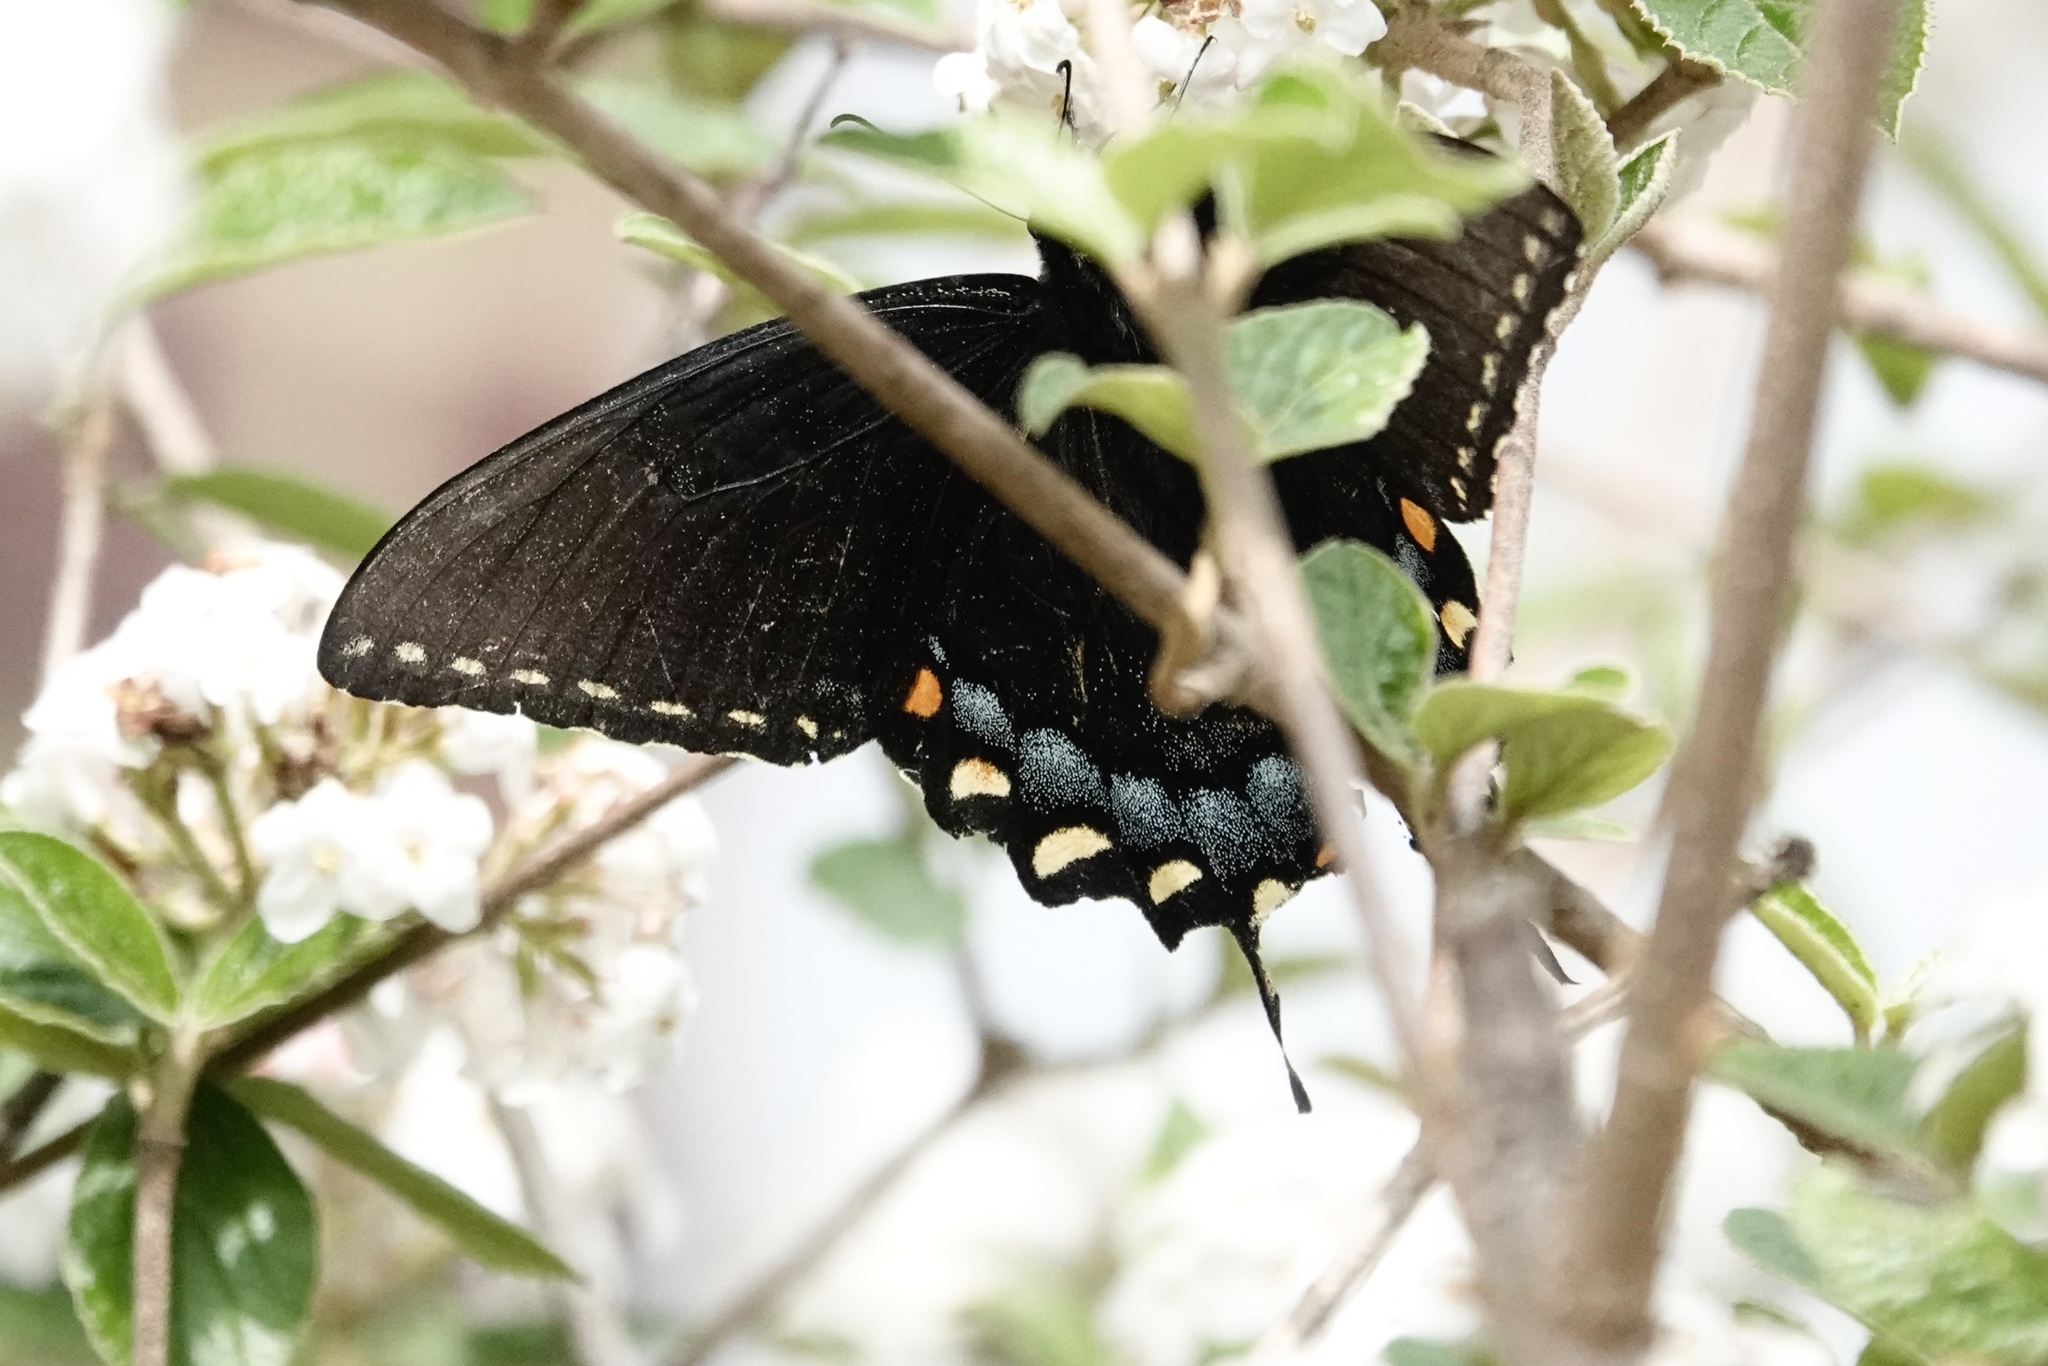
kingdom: Animalia
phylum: Arthropoda
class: Insecta
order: Lepidoptera
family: Papilionidae
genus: Papilio
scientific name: Papilio glaucus
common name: Tiger swallowtail
